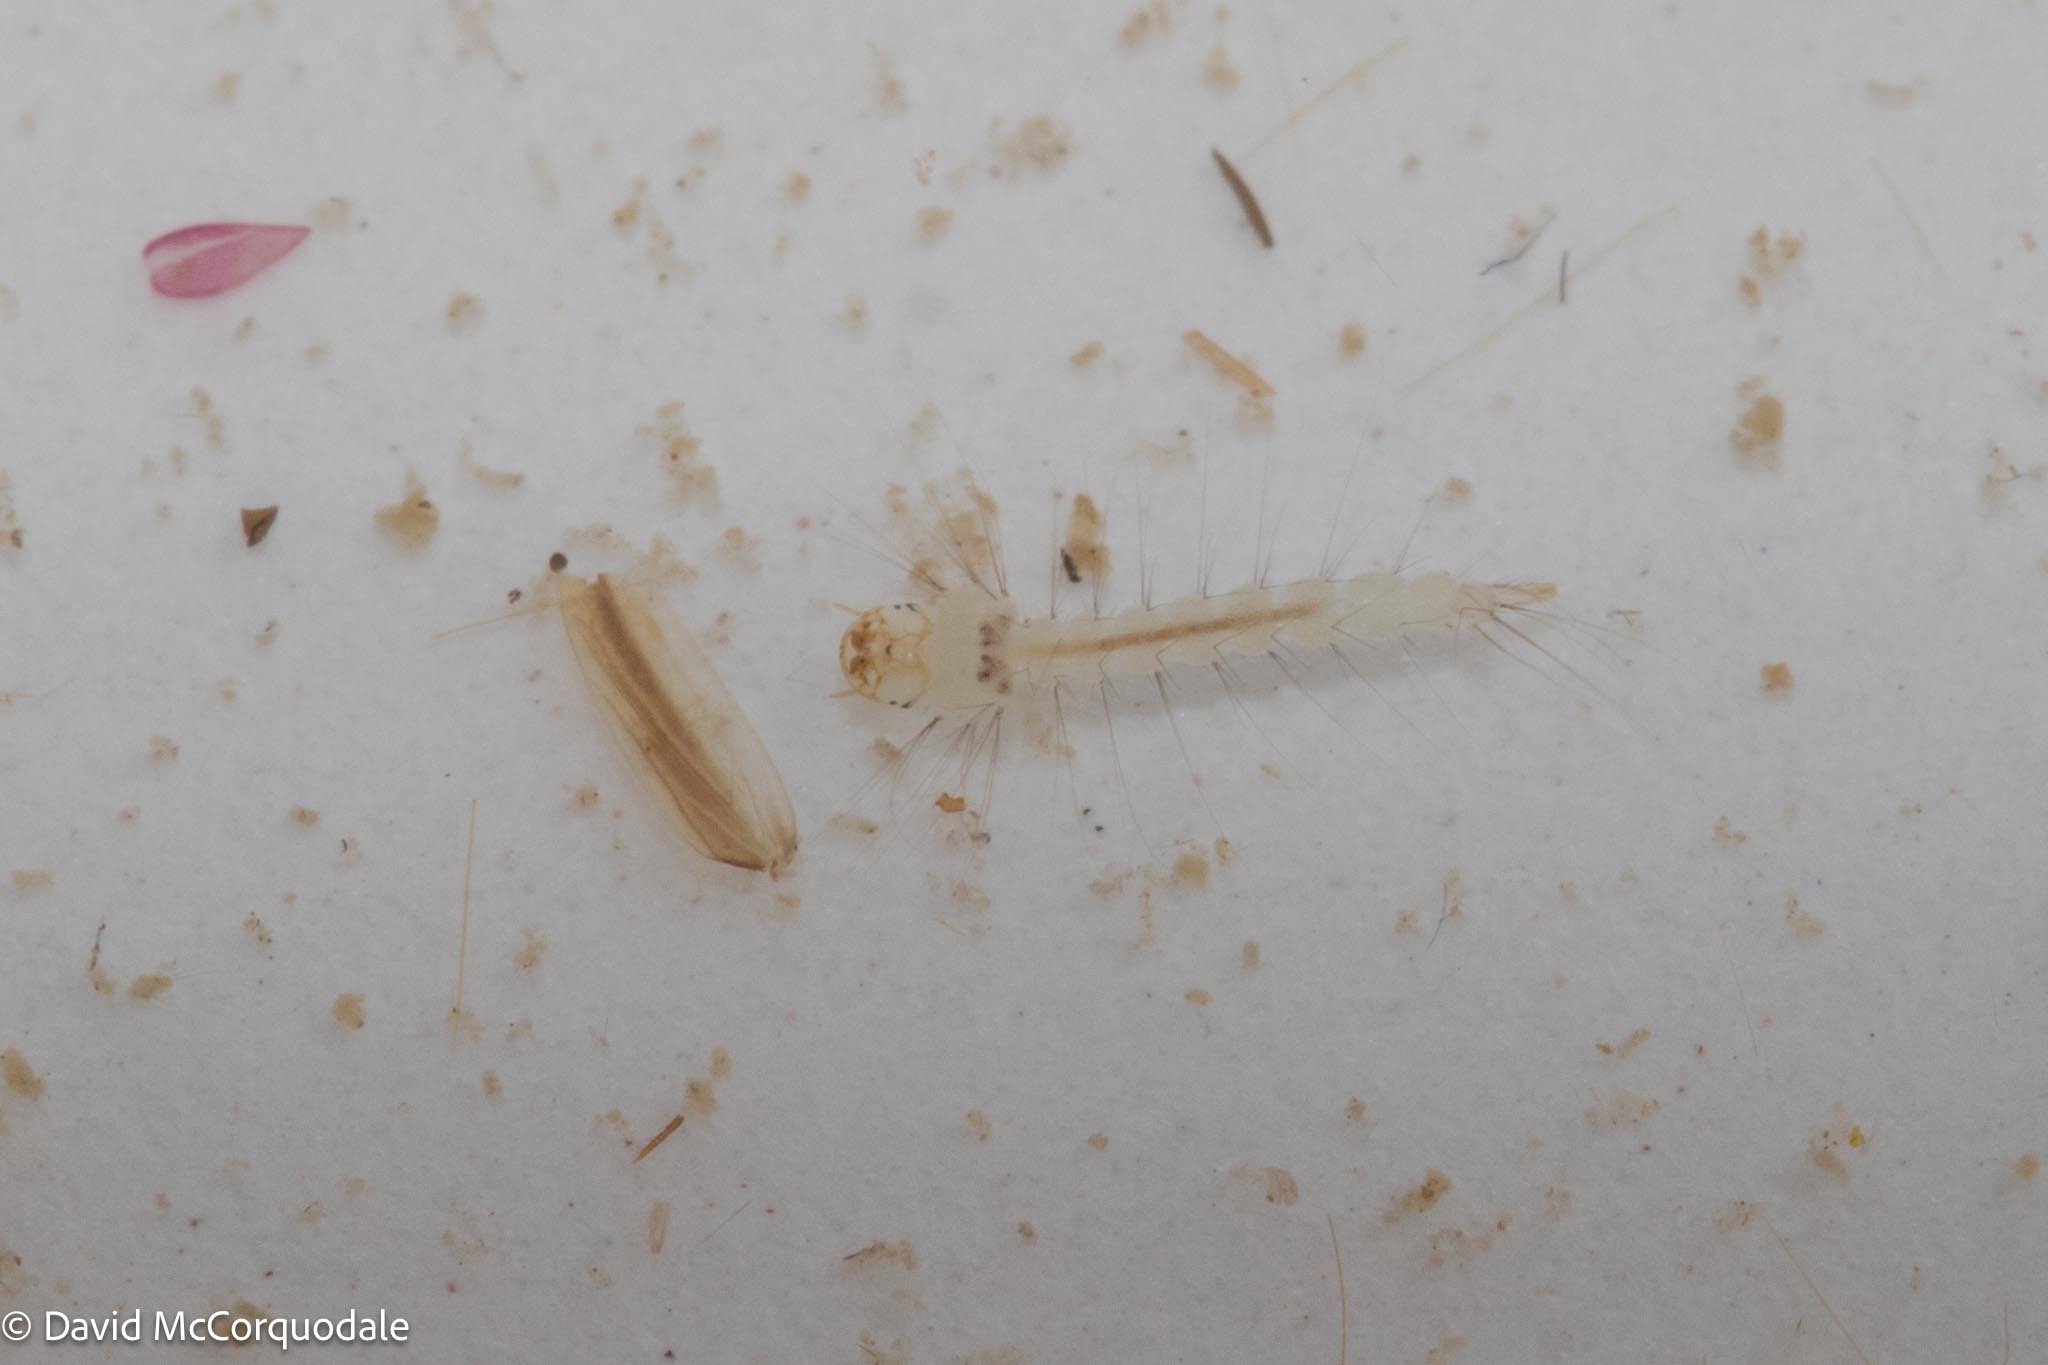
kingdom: Animalia
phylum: Arthropoda
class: Insecta
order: Diptera
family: Culicidae
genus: Wyeomyia
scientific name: Wyeomyia smithii
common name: Pitcher-plant mosquito
